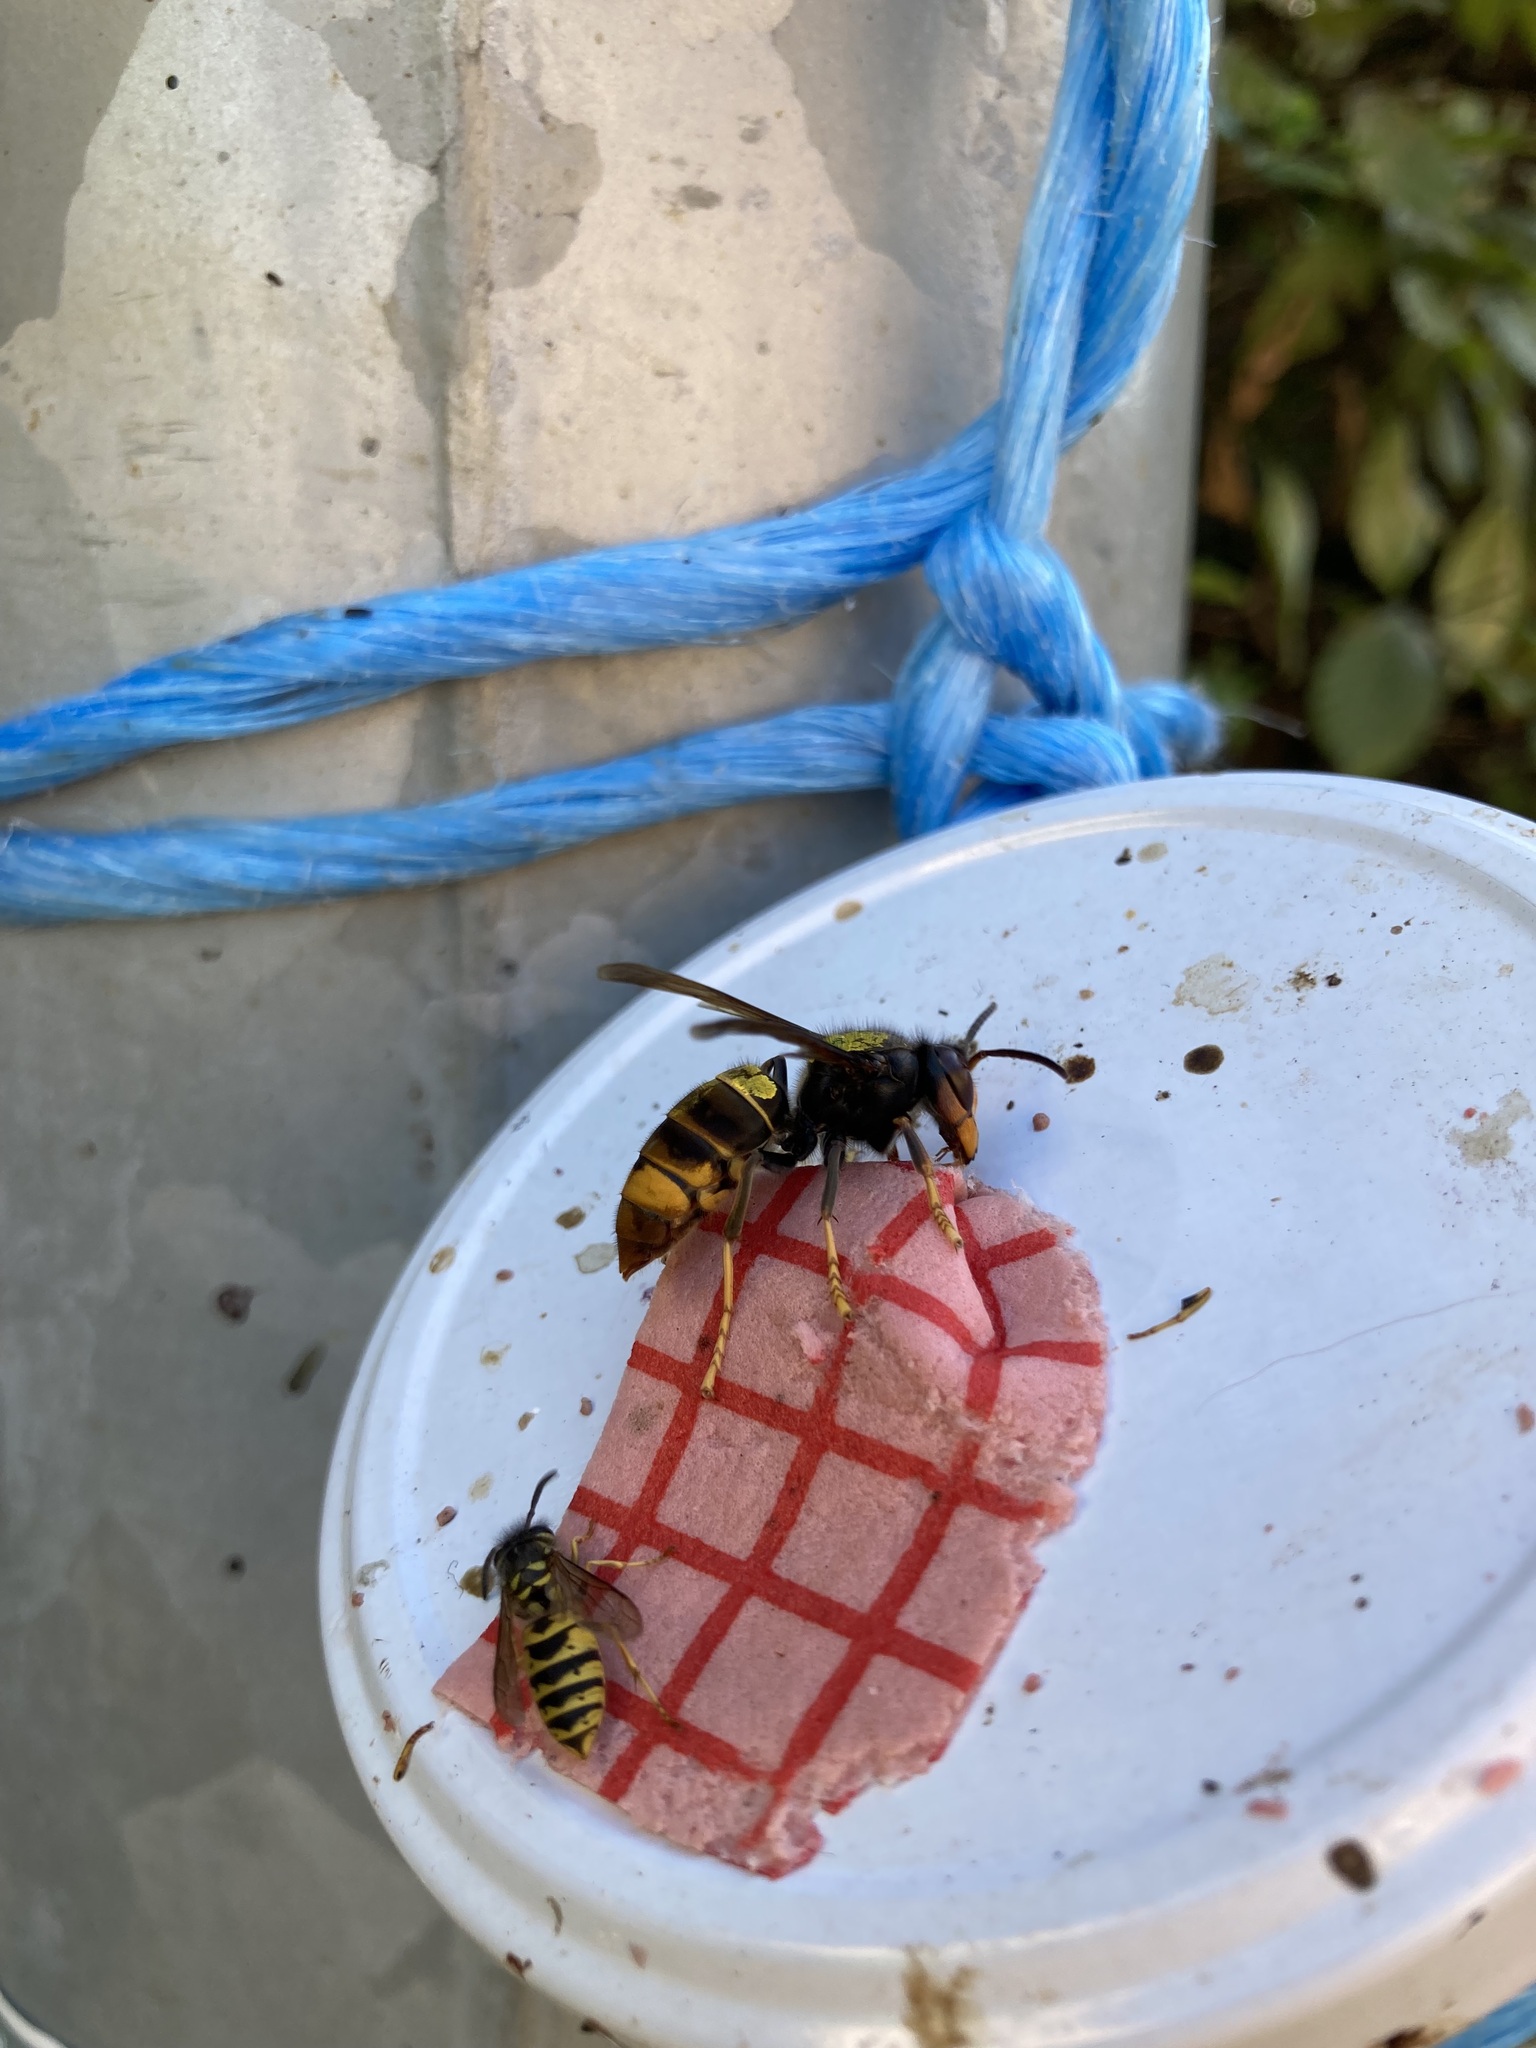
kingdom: Animalia
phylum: Arthropoda
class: Insecta
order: Hymenoptera
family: Vespidae
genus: Vespa
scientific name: Vespa velutina
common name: Asian hornet
